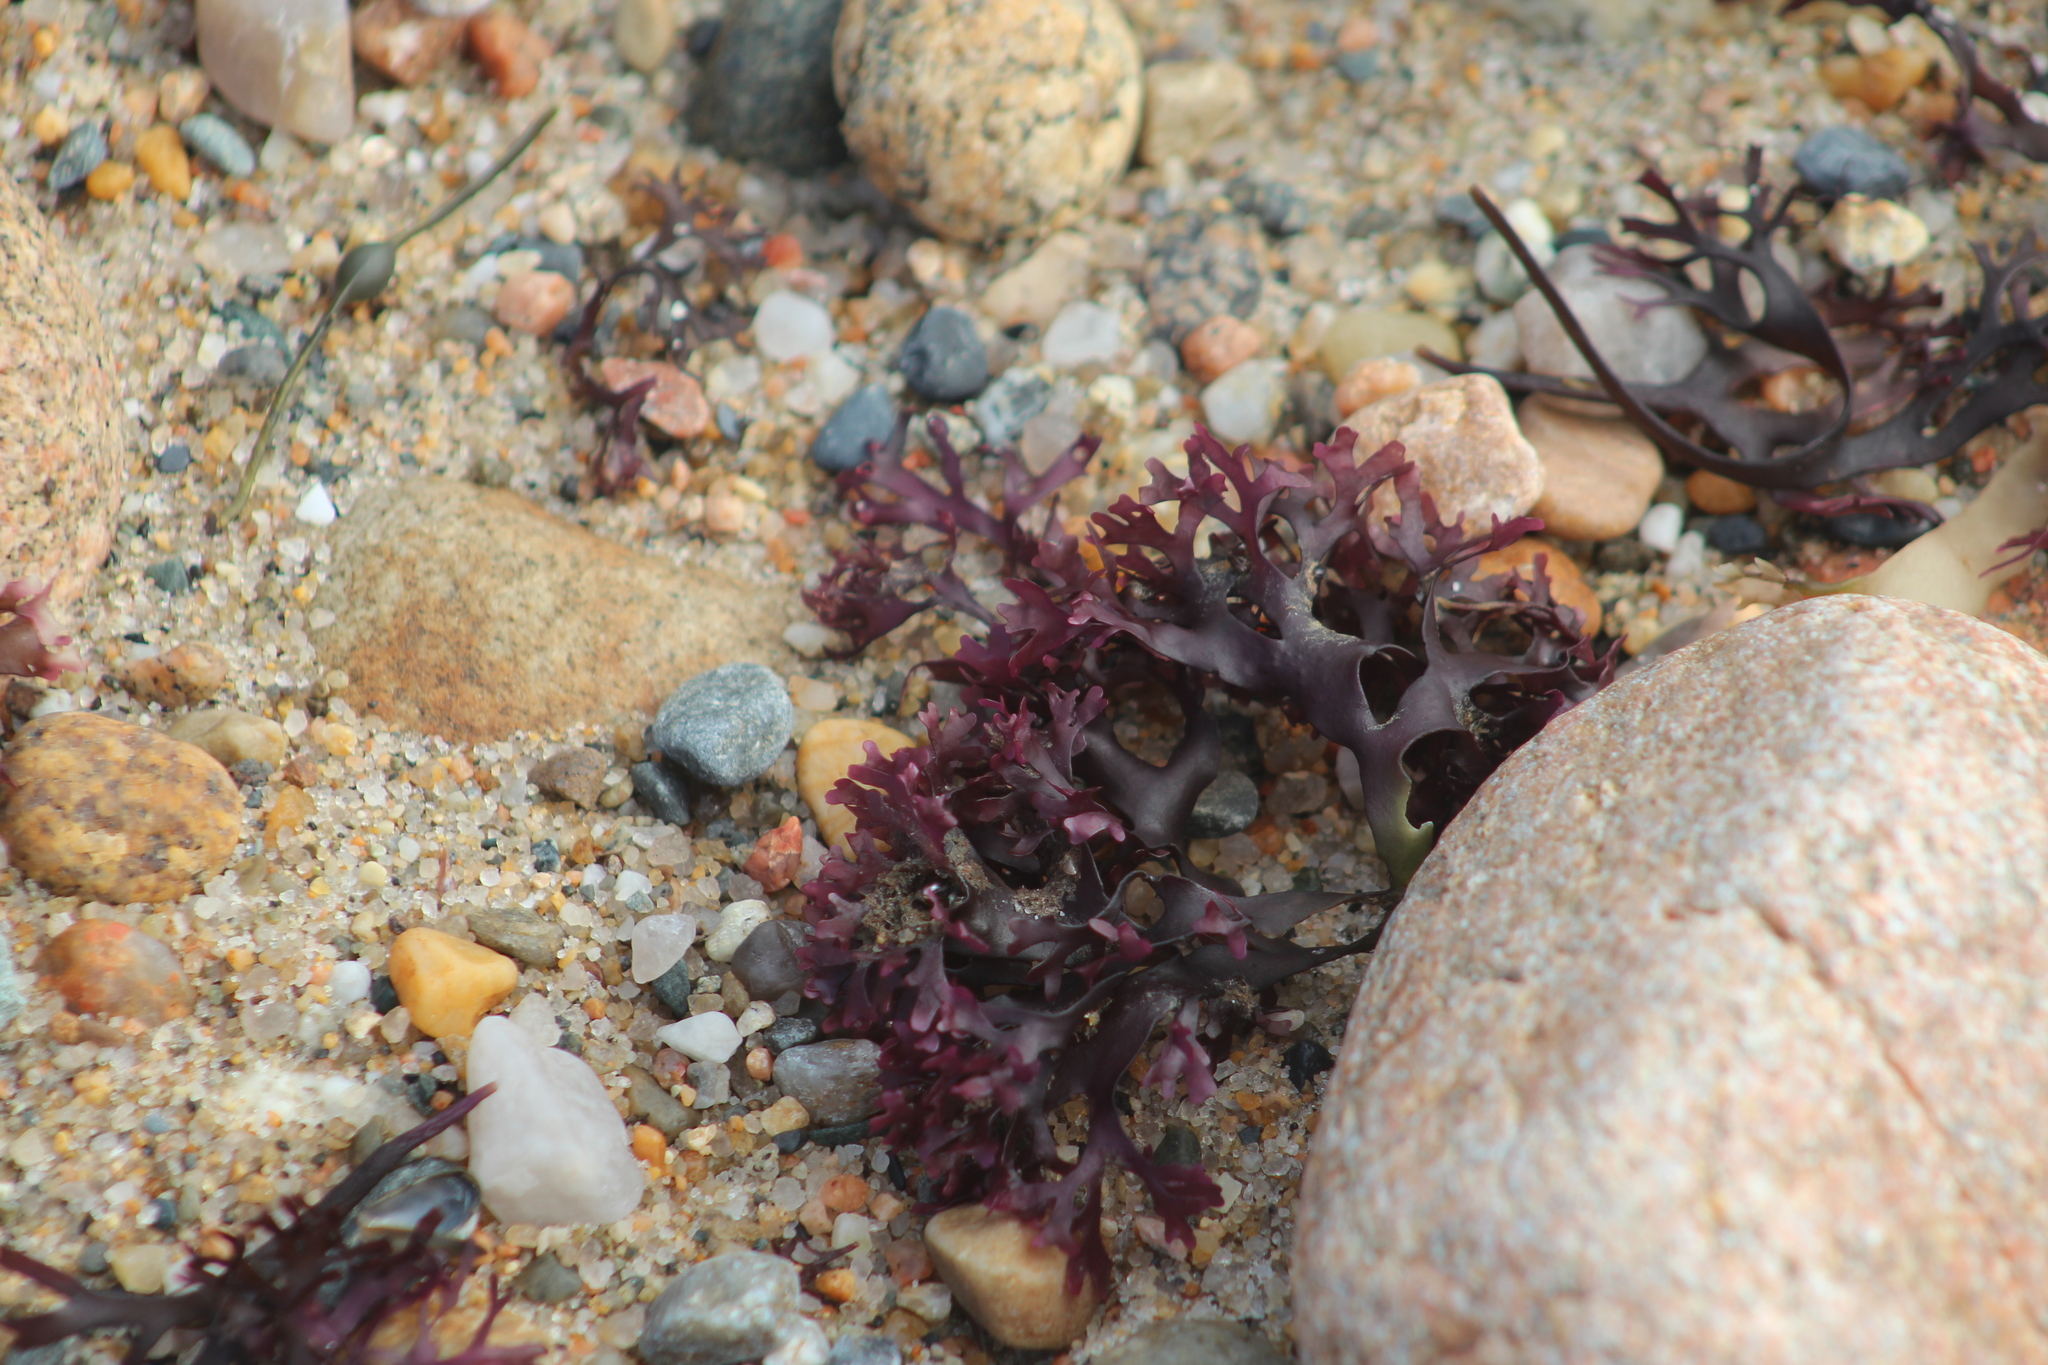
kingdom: Plantae
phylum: Rhodophyta
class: Florideophyceae
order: Gigartinales
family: Gigartinaceae
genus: Chondrus
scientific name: Chondrus crispus
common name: Carrageen
